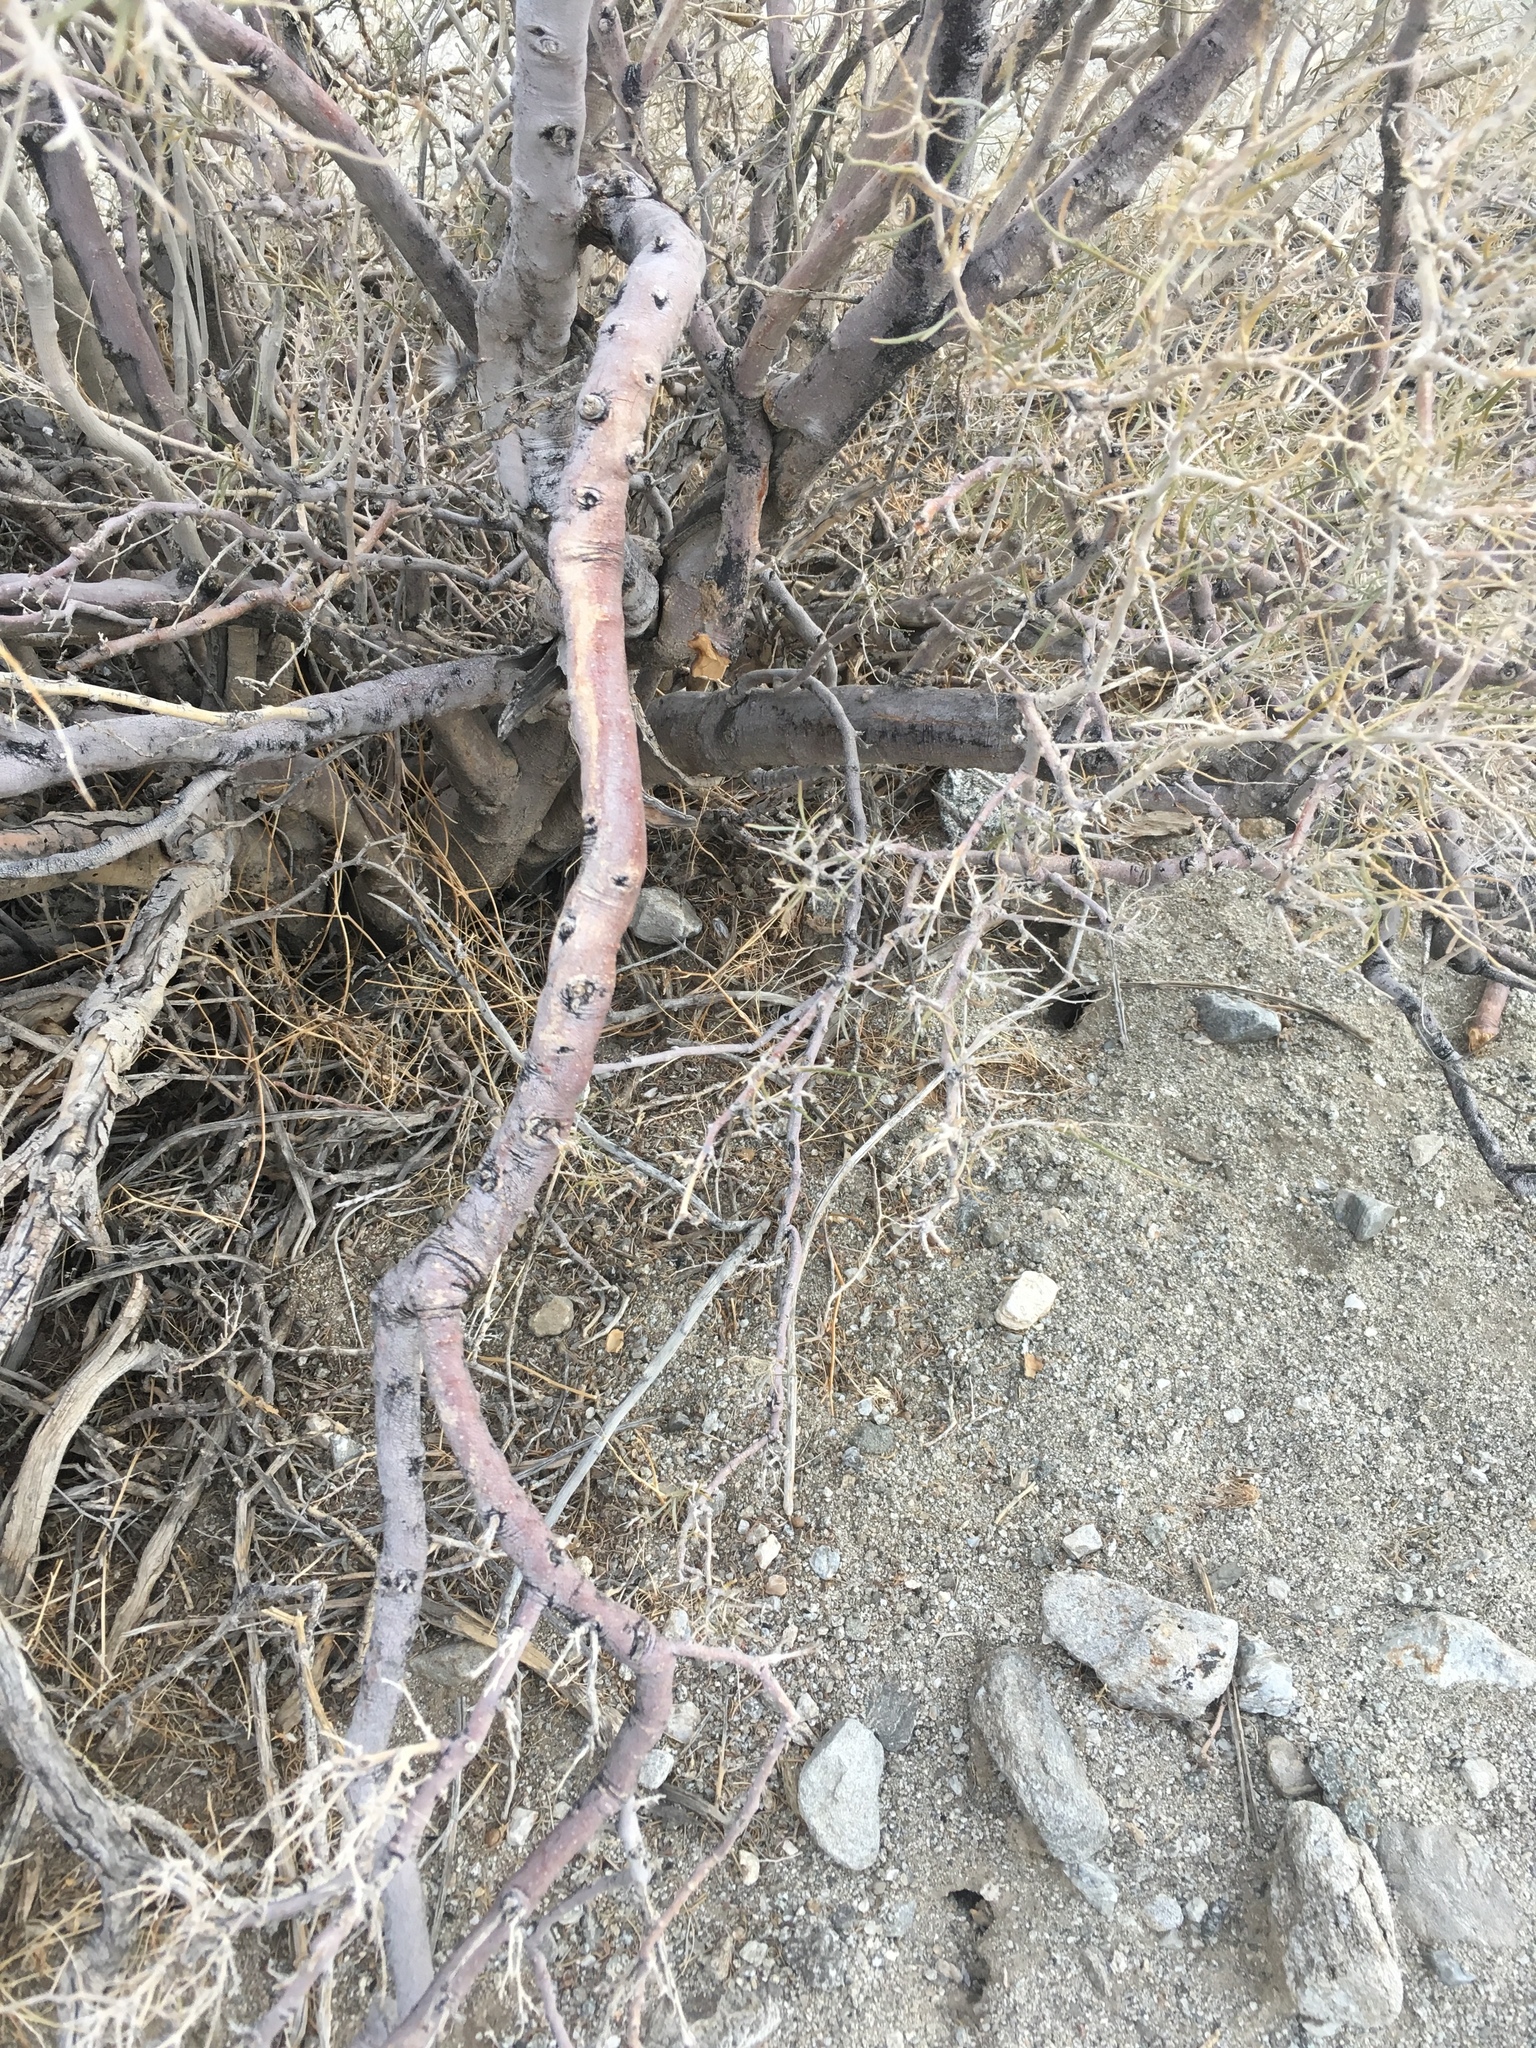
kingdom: Plantae
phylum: Tracheophyta
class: Magnoliopsida
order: Fabales
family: Fabaceae
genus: Psorothamnus
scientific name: Psorothamnus schottii
